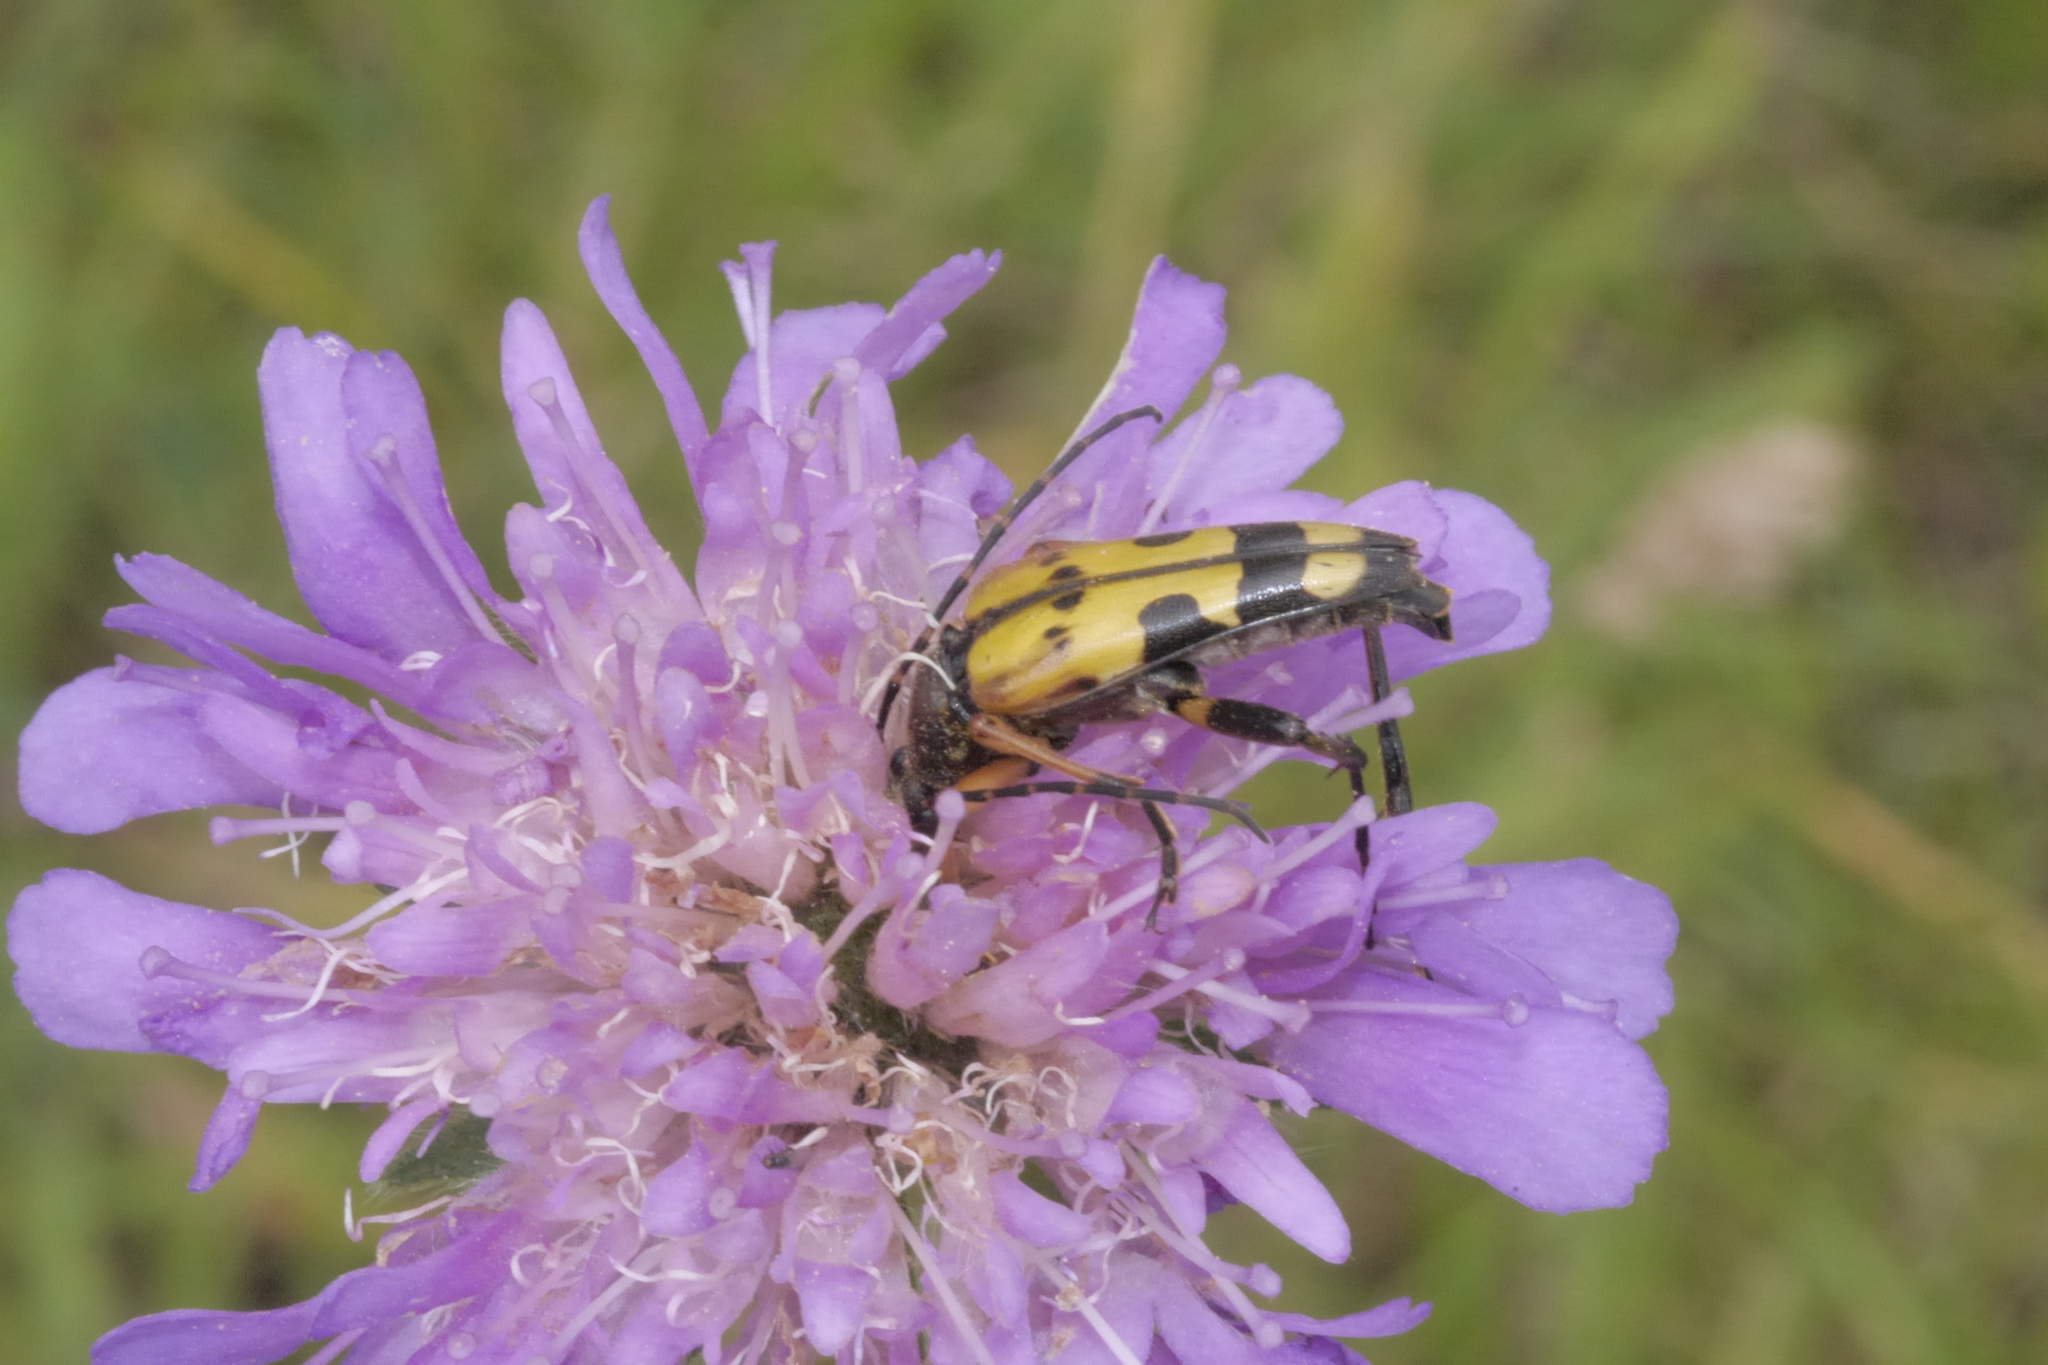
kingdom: Animalia
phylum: Arthropoda
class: Insecta
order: Coleoptera
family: Cerambycidae
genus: Rutpela
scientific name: Rutpela maculata
